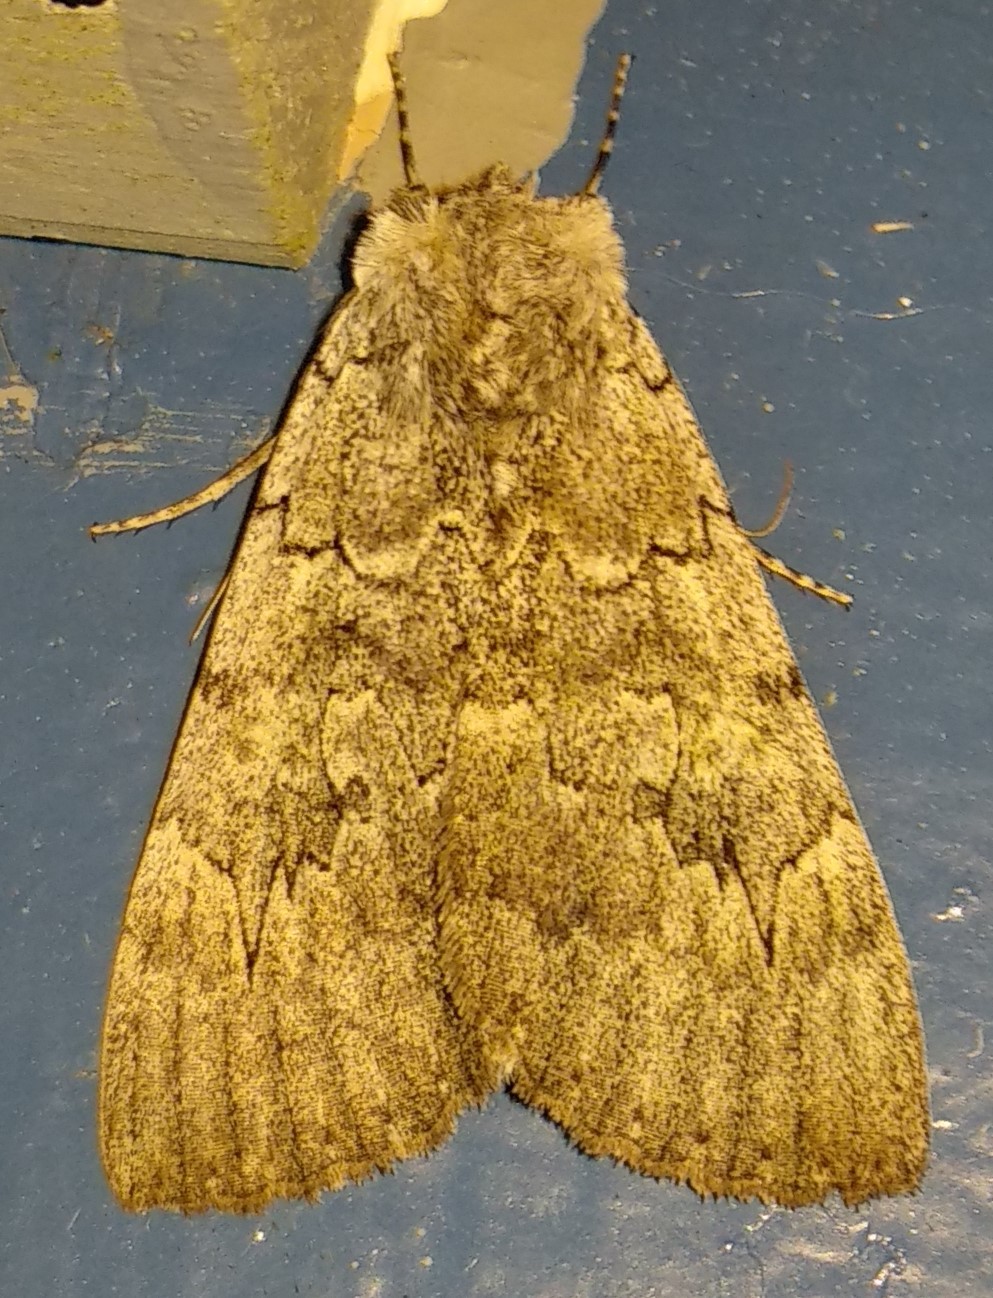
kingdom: Animalia
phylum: Arthropoda
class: Insecta
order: Lepidoptera
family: Erebidae
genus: Catocala
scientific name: Catocala concumbens
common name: Pink underwing
